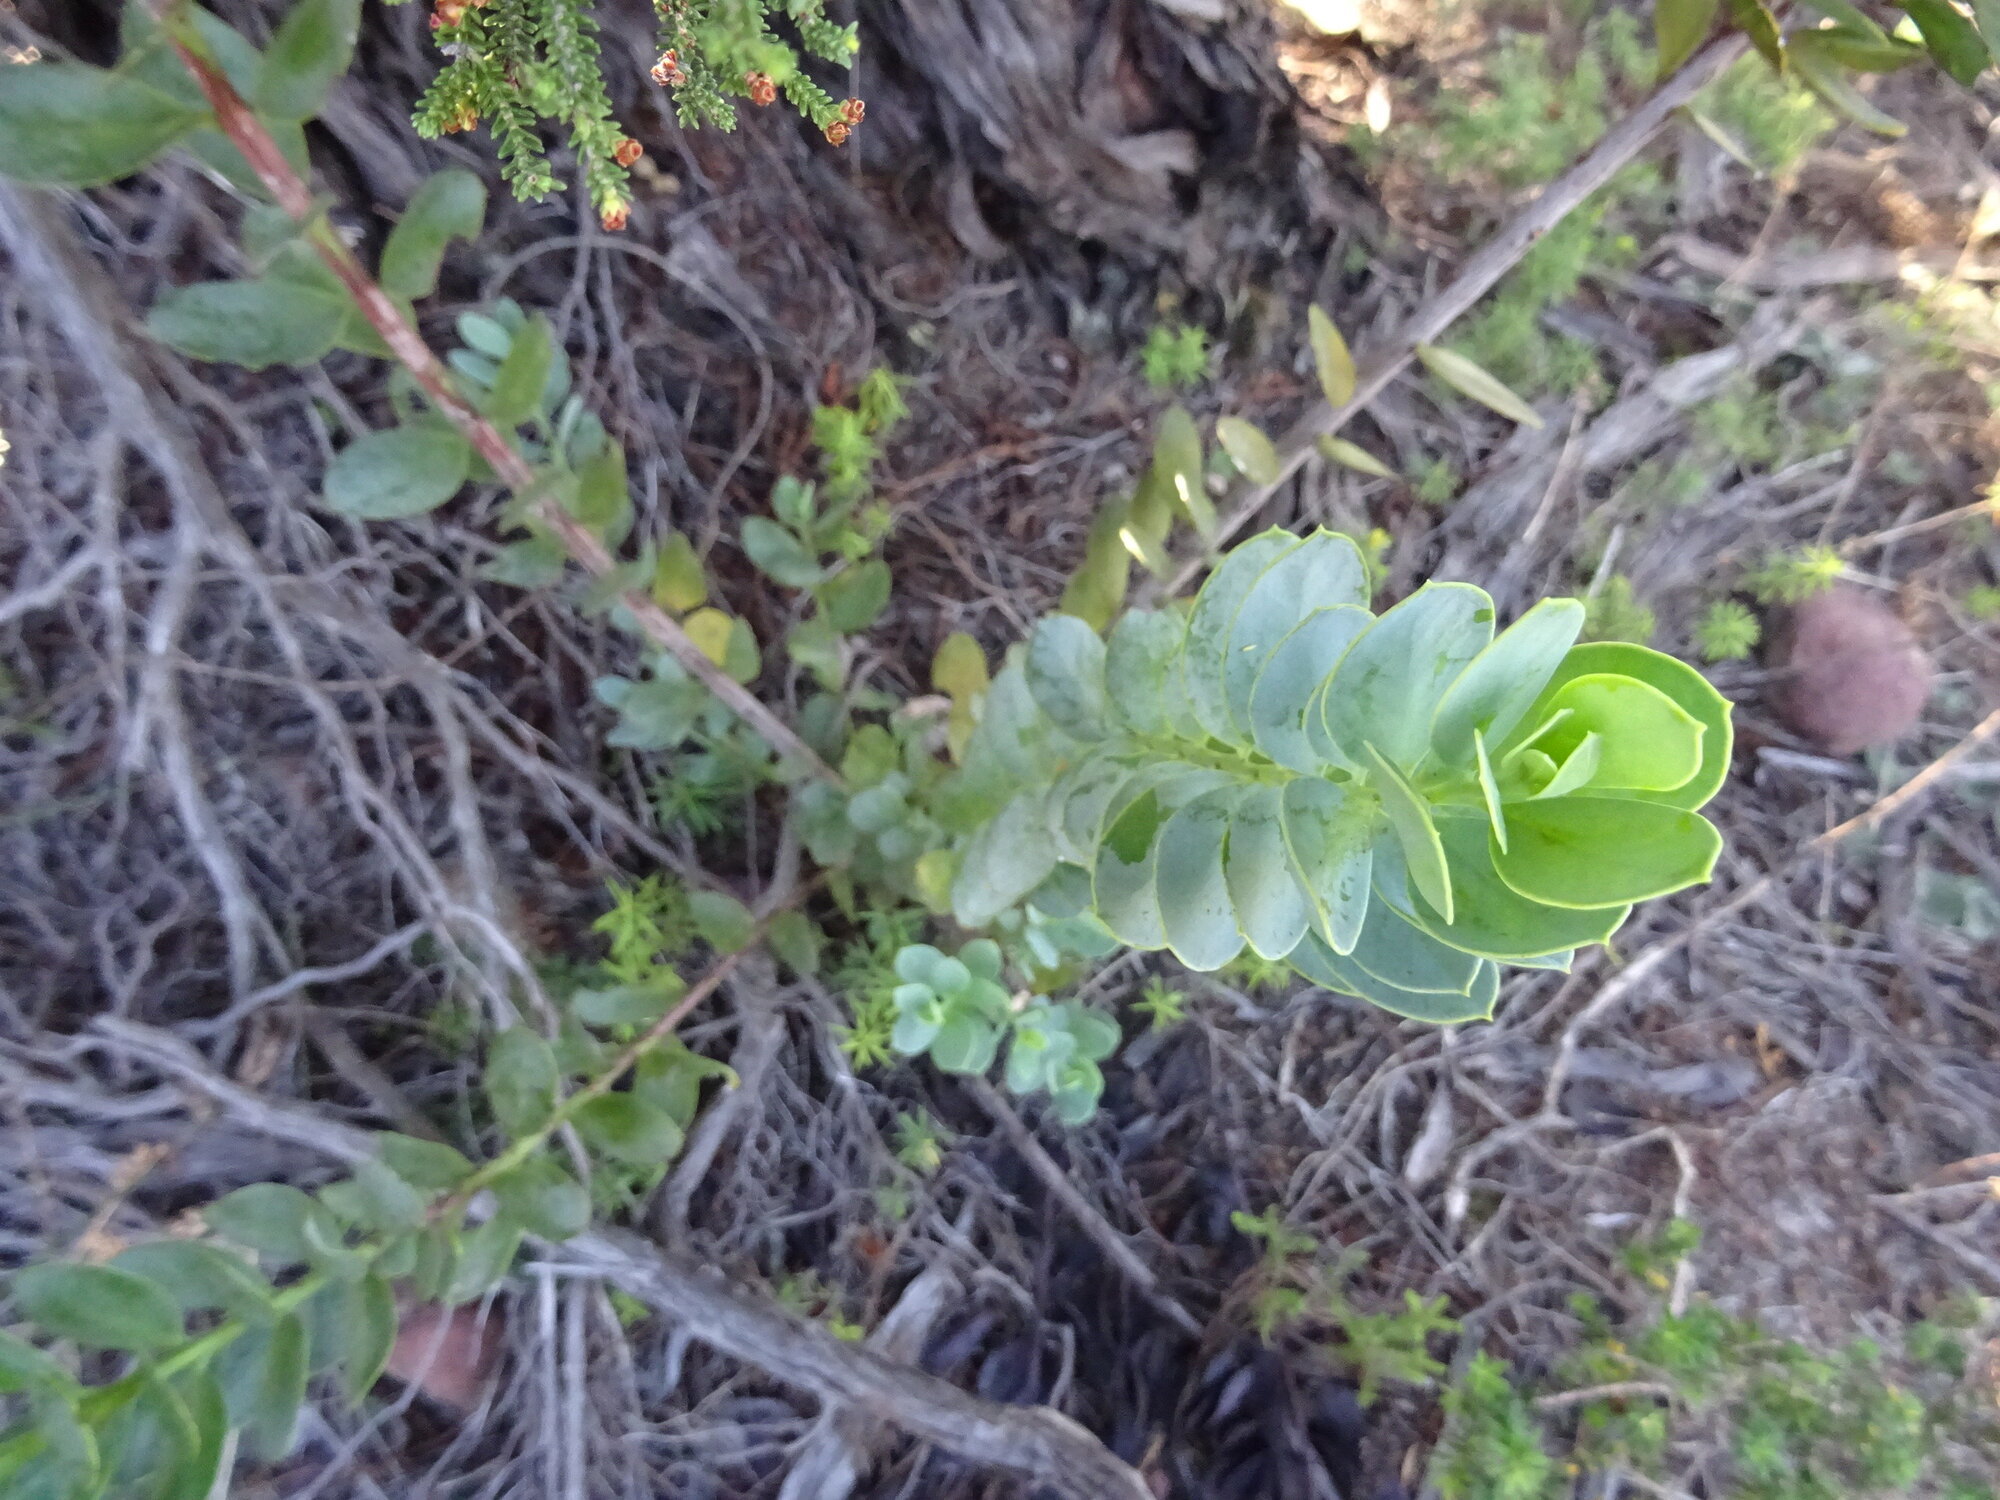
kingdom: Plantae
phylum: Tracheophyta
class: Magnoliopsida
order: Santalales
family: Santalaceae
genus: Osyris
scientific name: Osyris compressa
